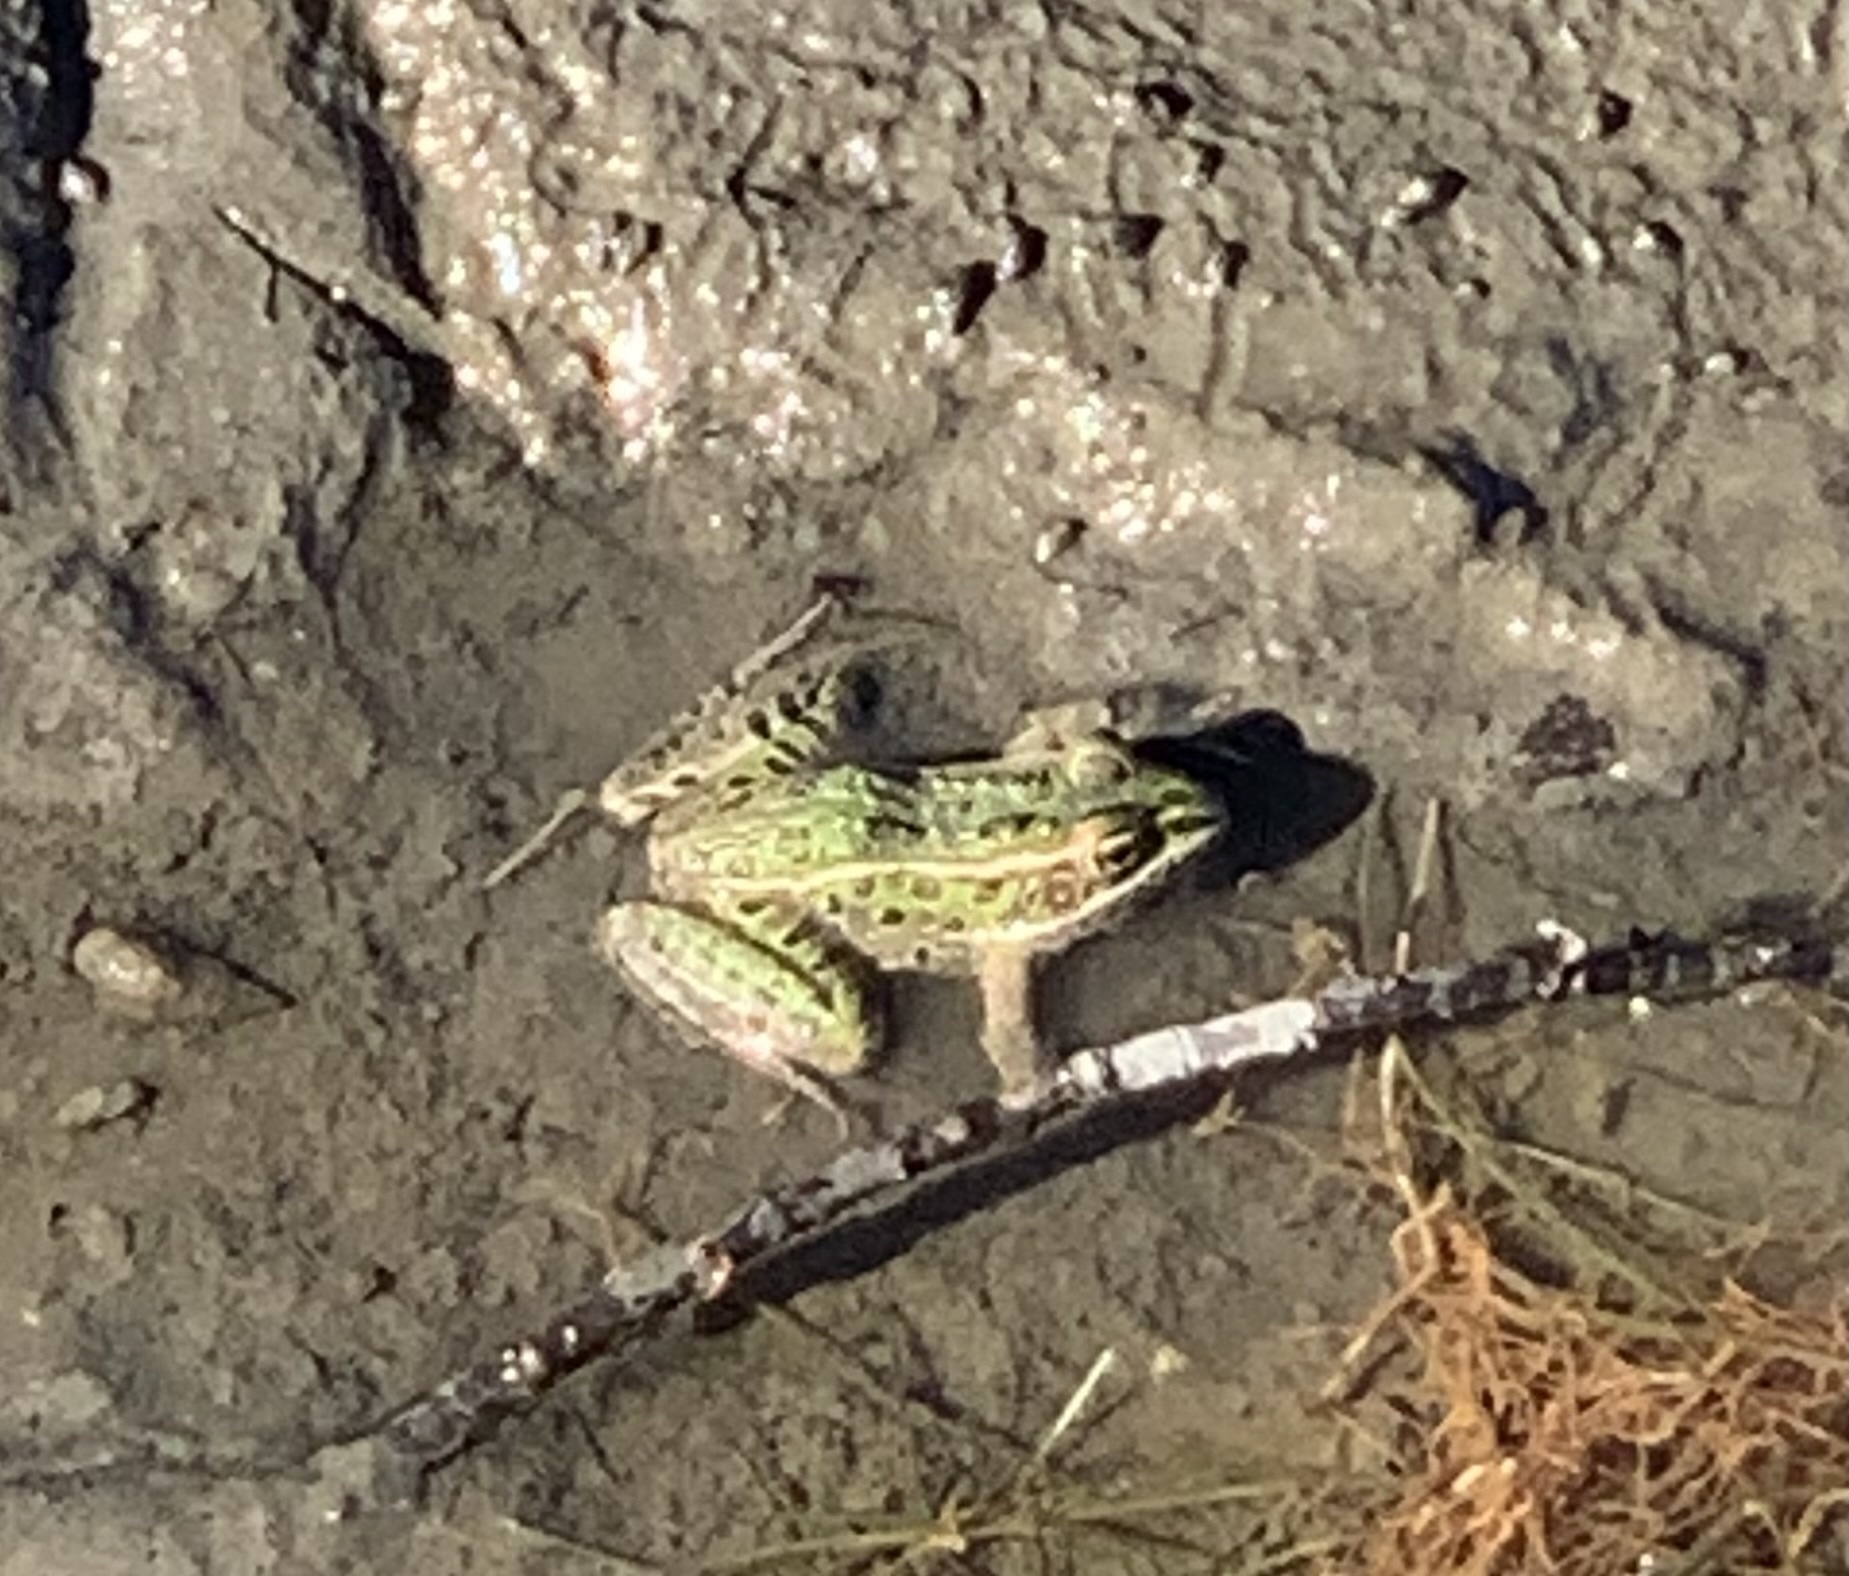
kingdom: Animalia
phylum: Chordata
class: Amphibia
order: Anura
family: Ranidae
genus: Lithobates
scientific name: Lithobates pipiens
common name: Northern leopard frog
